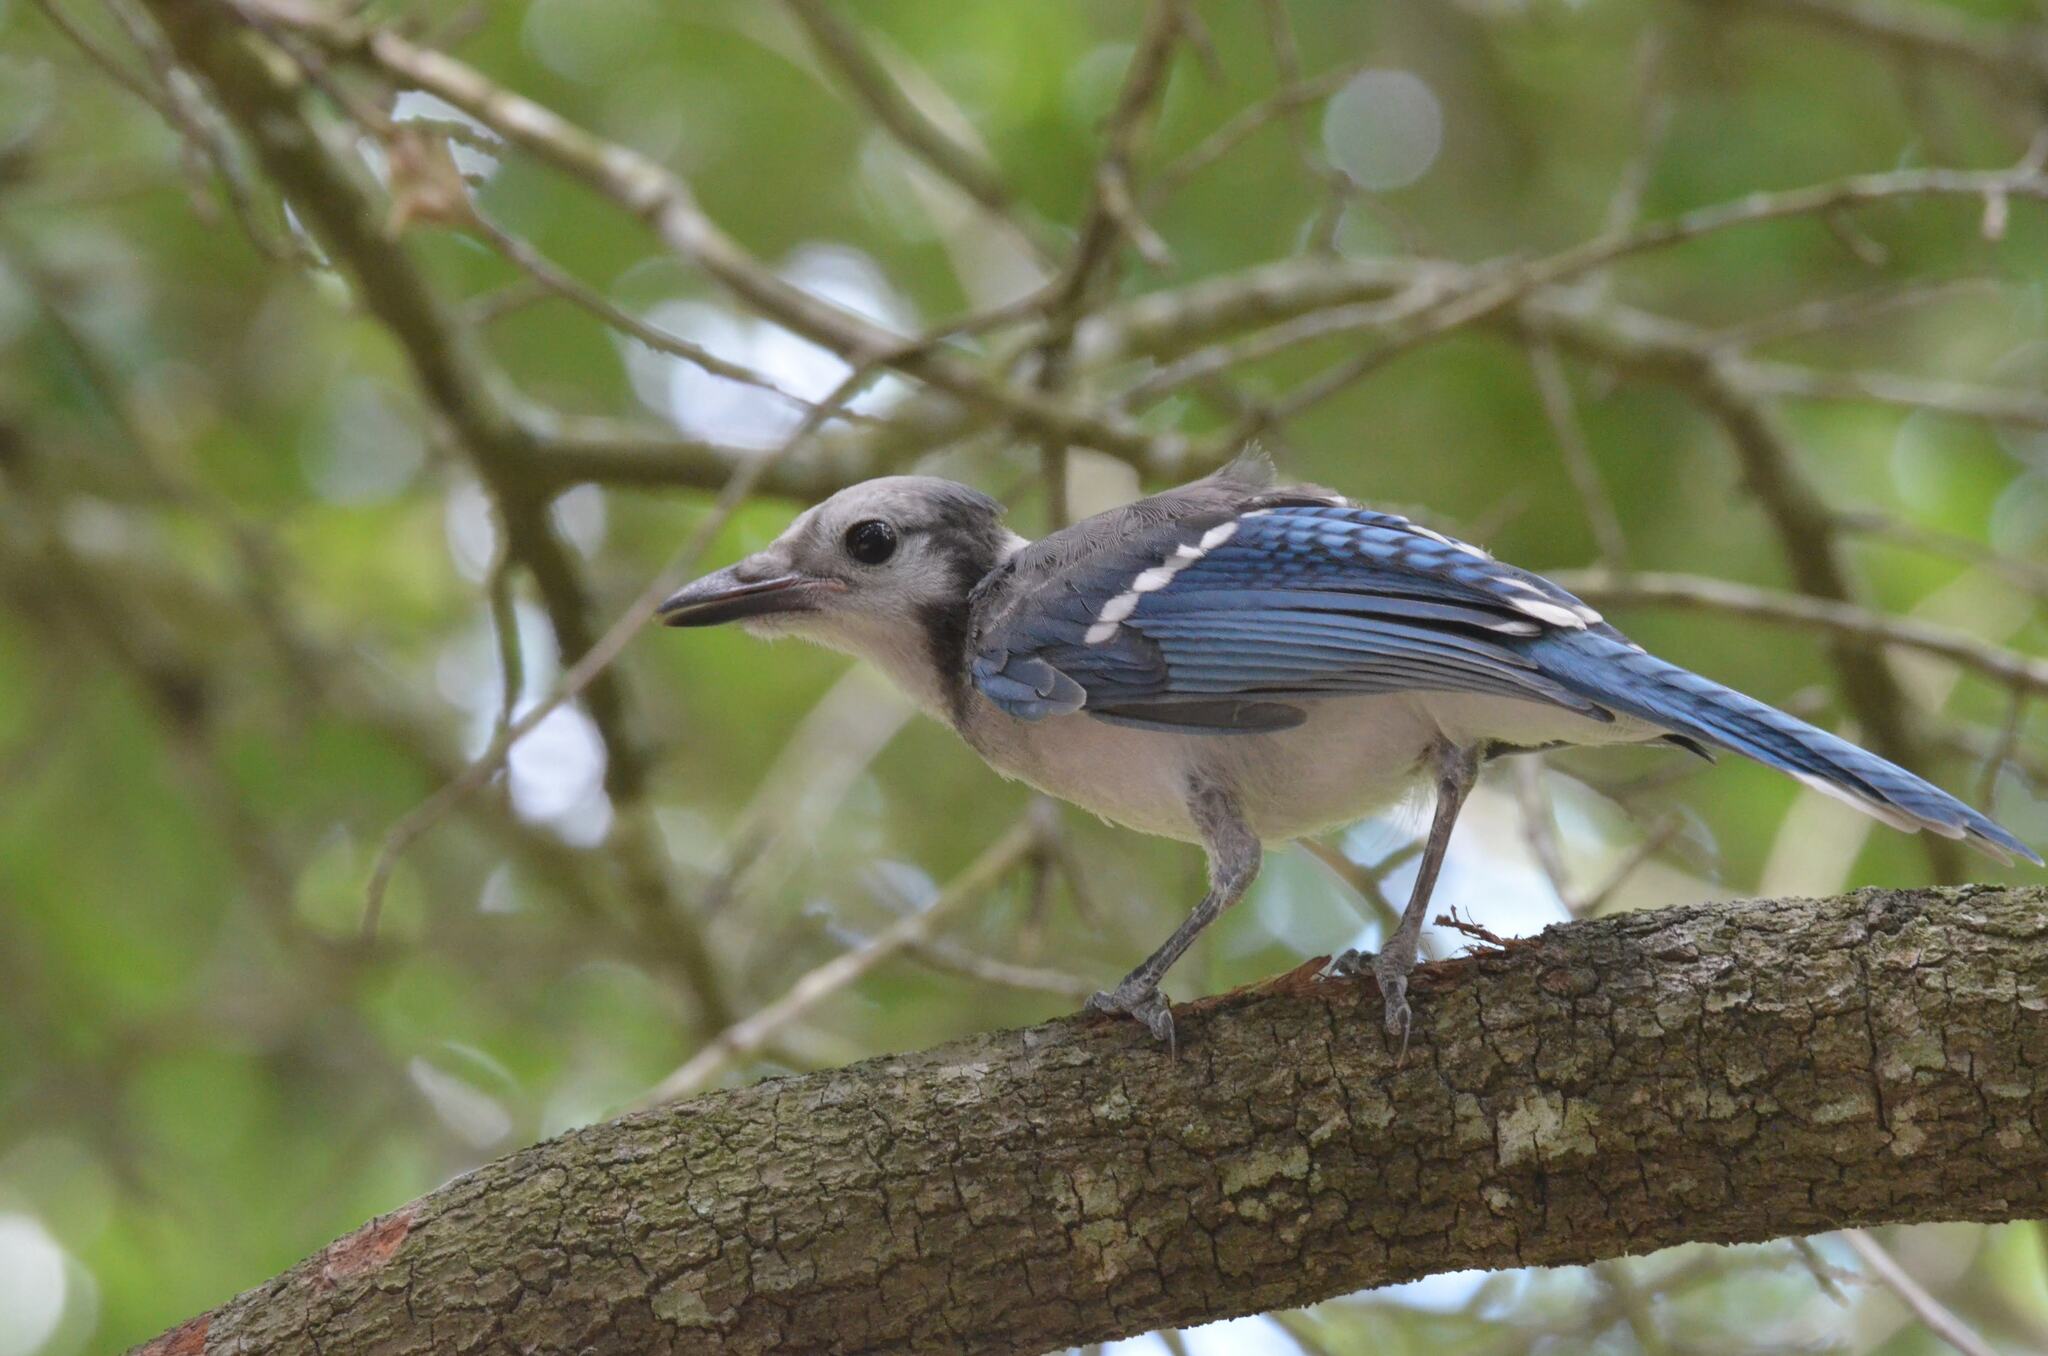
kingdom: Animalia
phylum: Chordata
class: Aves
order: Passeriformes
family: Corvidae
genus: Cyanocitta
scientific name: Cyanocitta cristata
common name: Blue jay
